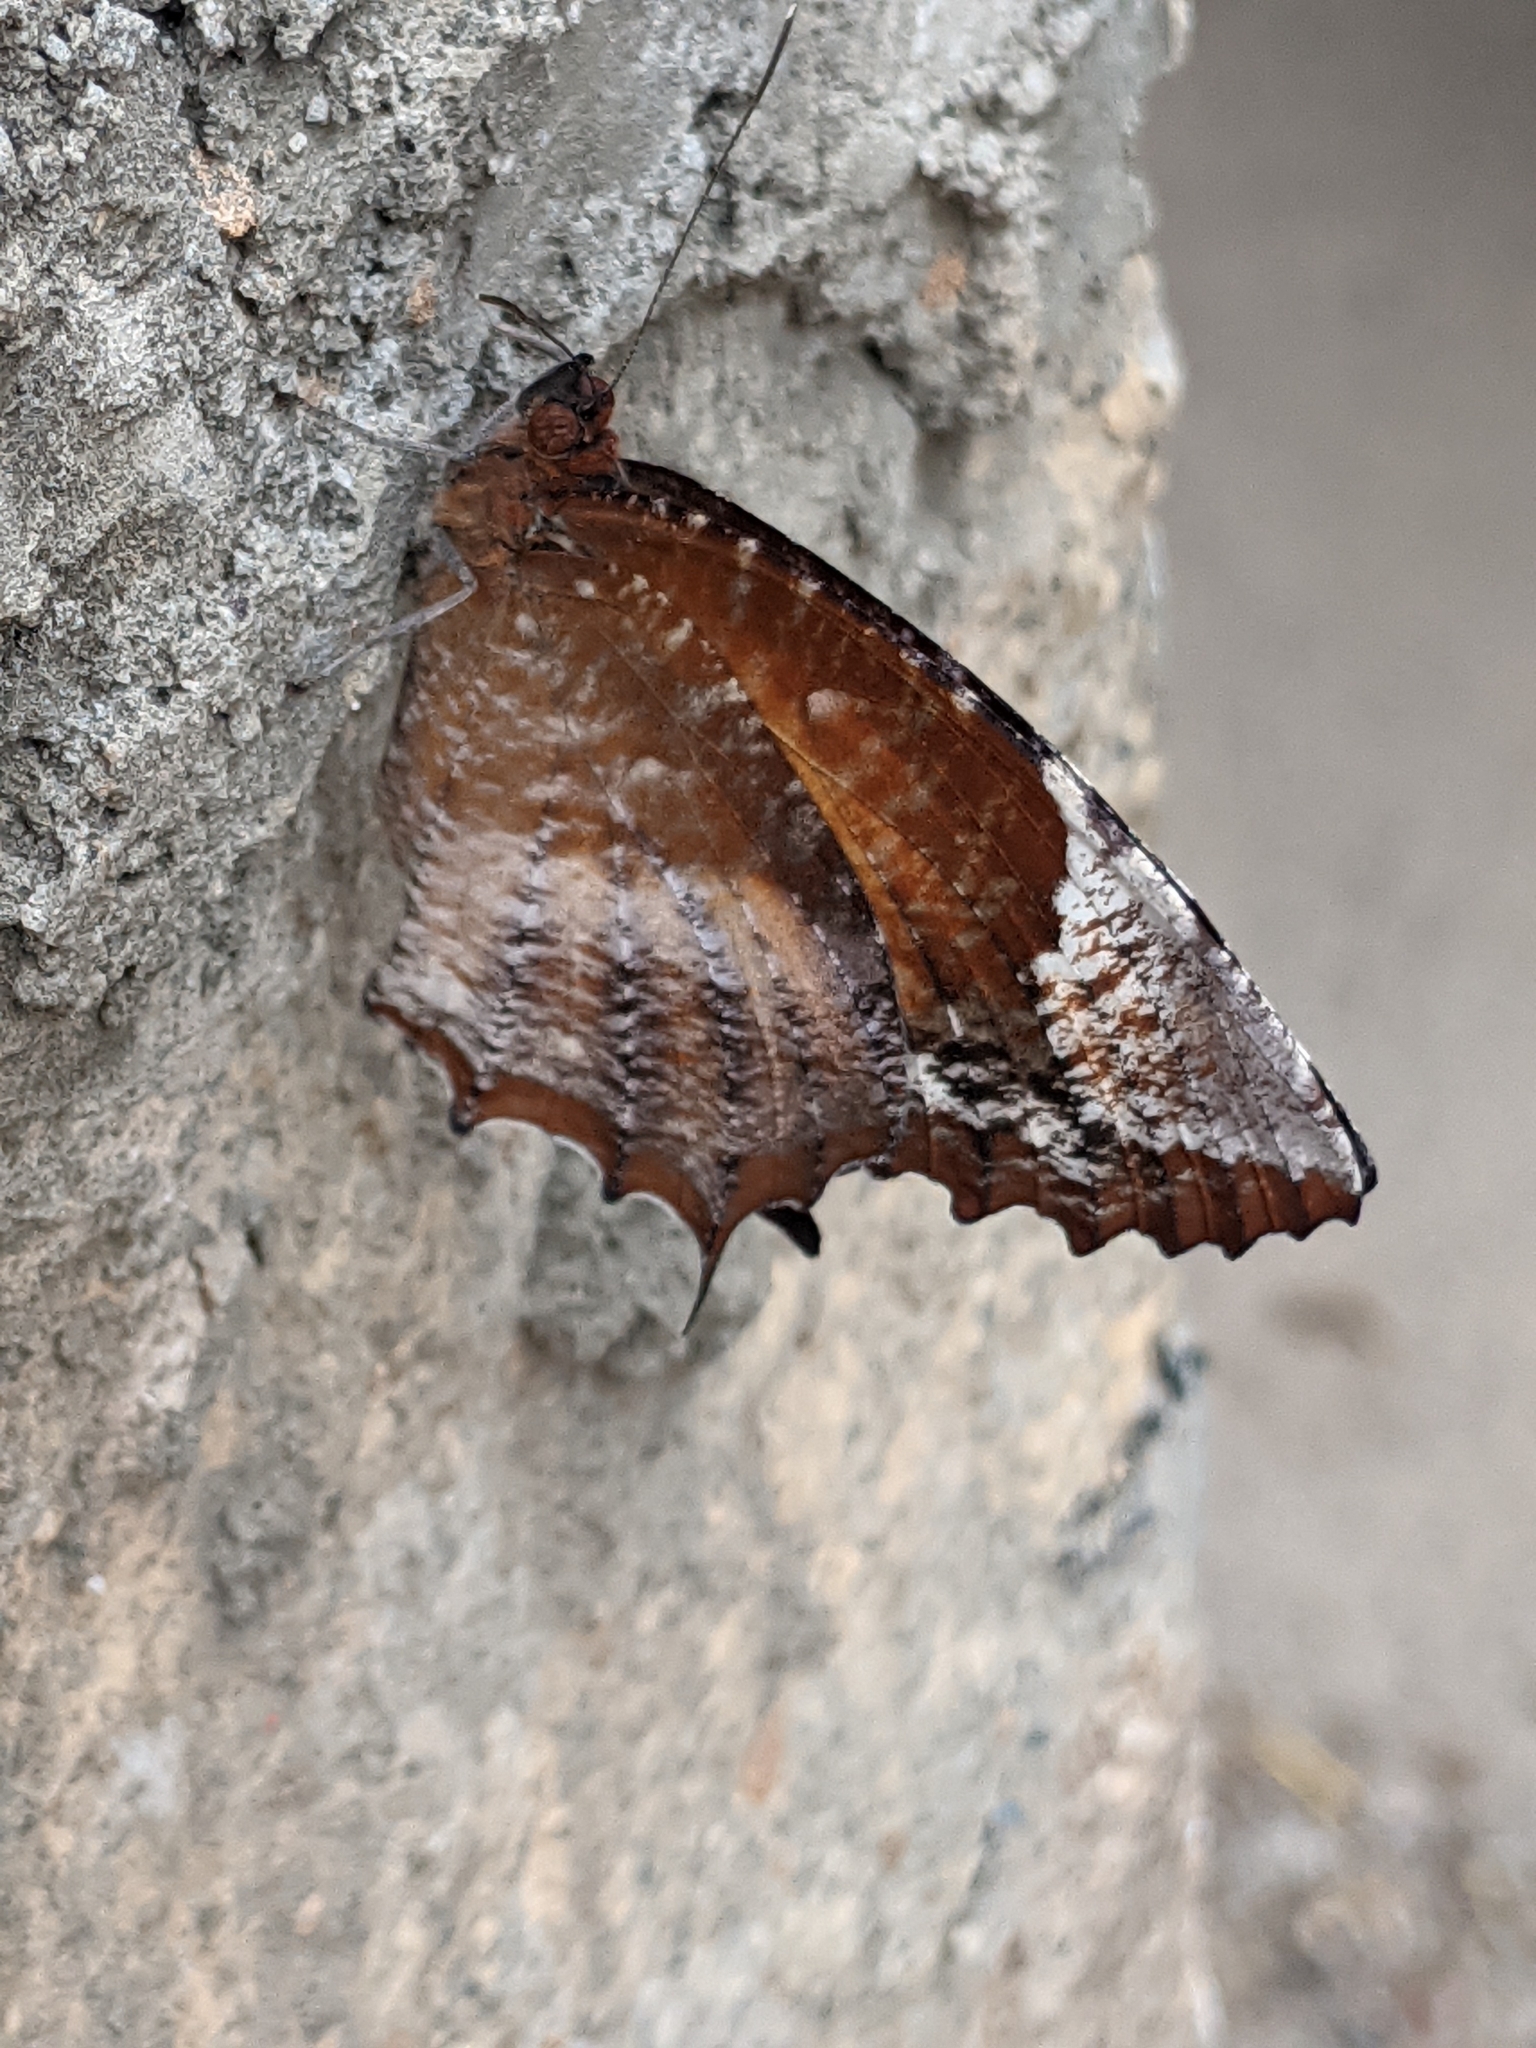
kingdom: Animalia
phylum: Arthropoda
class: Insecta
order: Lepidoptera
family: Nymphalidae
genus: Elymnias
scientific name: Elymnias caudata
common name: Tailed palmfly
